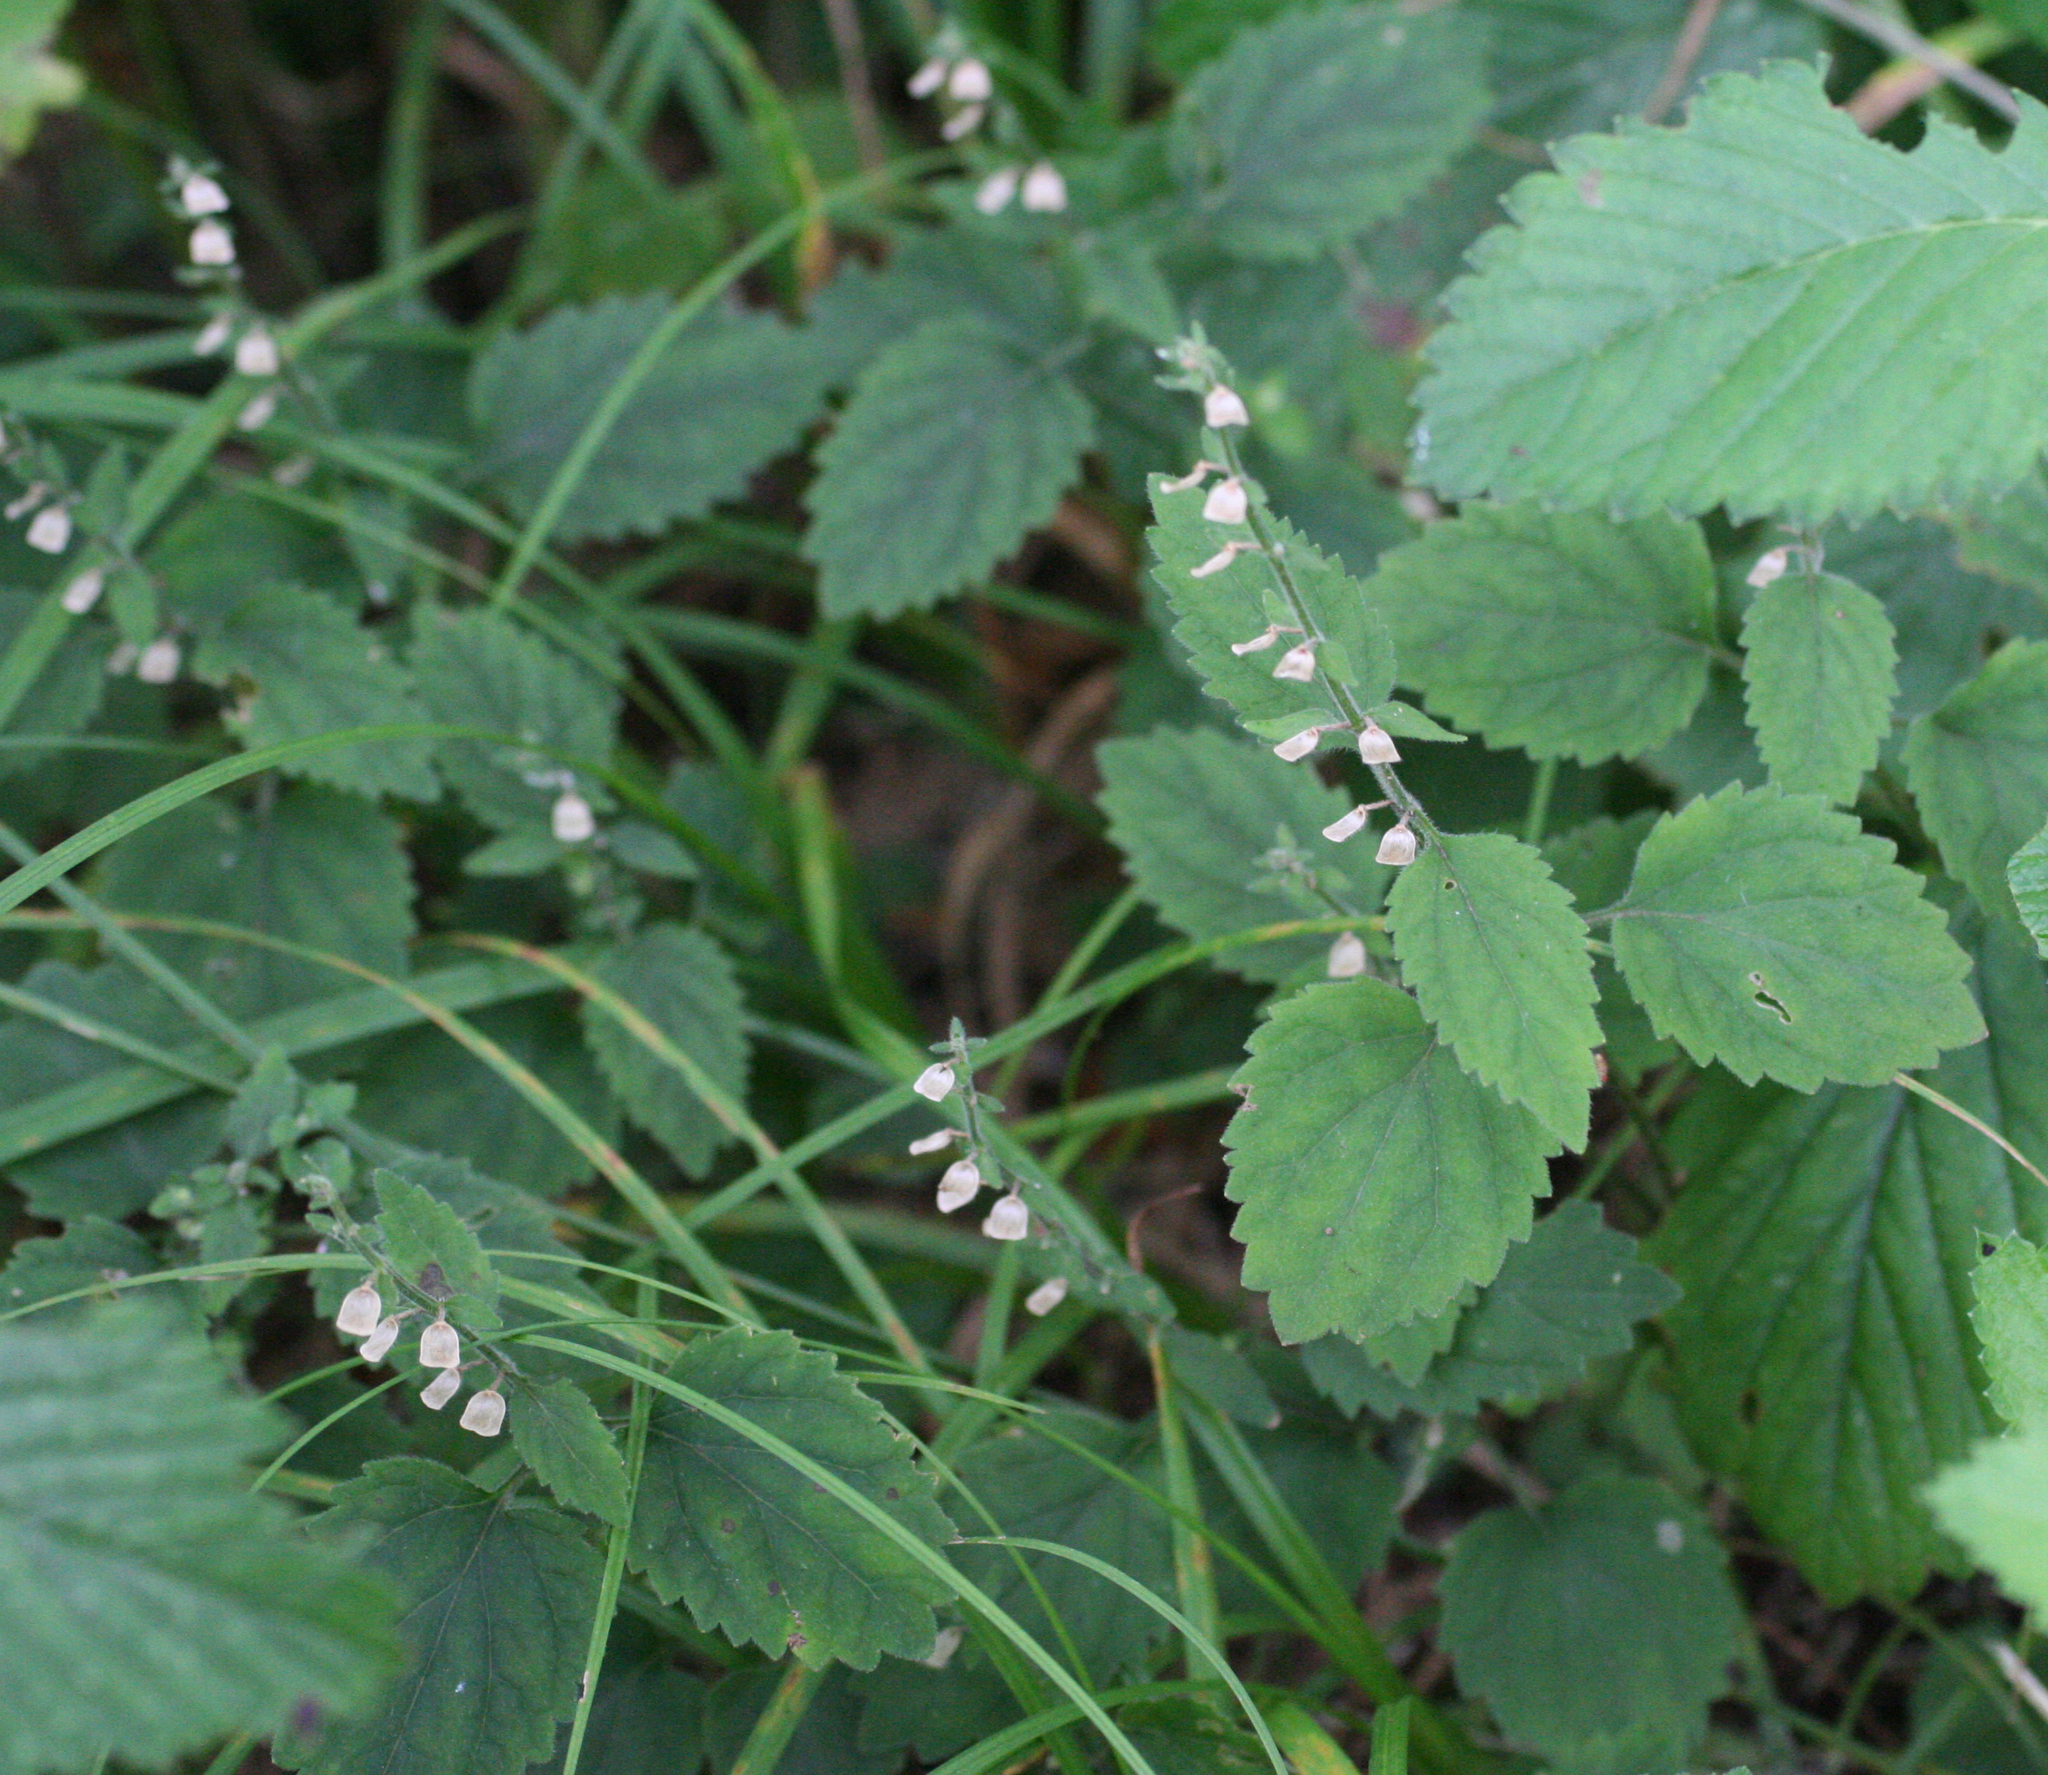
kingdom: Plantae
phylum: Tracheophyta
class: Magnoliopsida
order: Lamiales
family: Lamiaceae
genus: Scutellaria
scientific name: Scutellaria pekinensis
